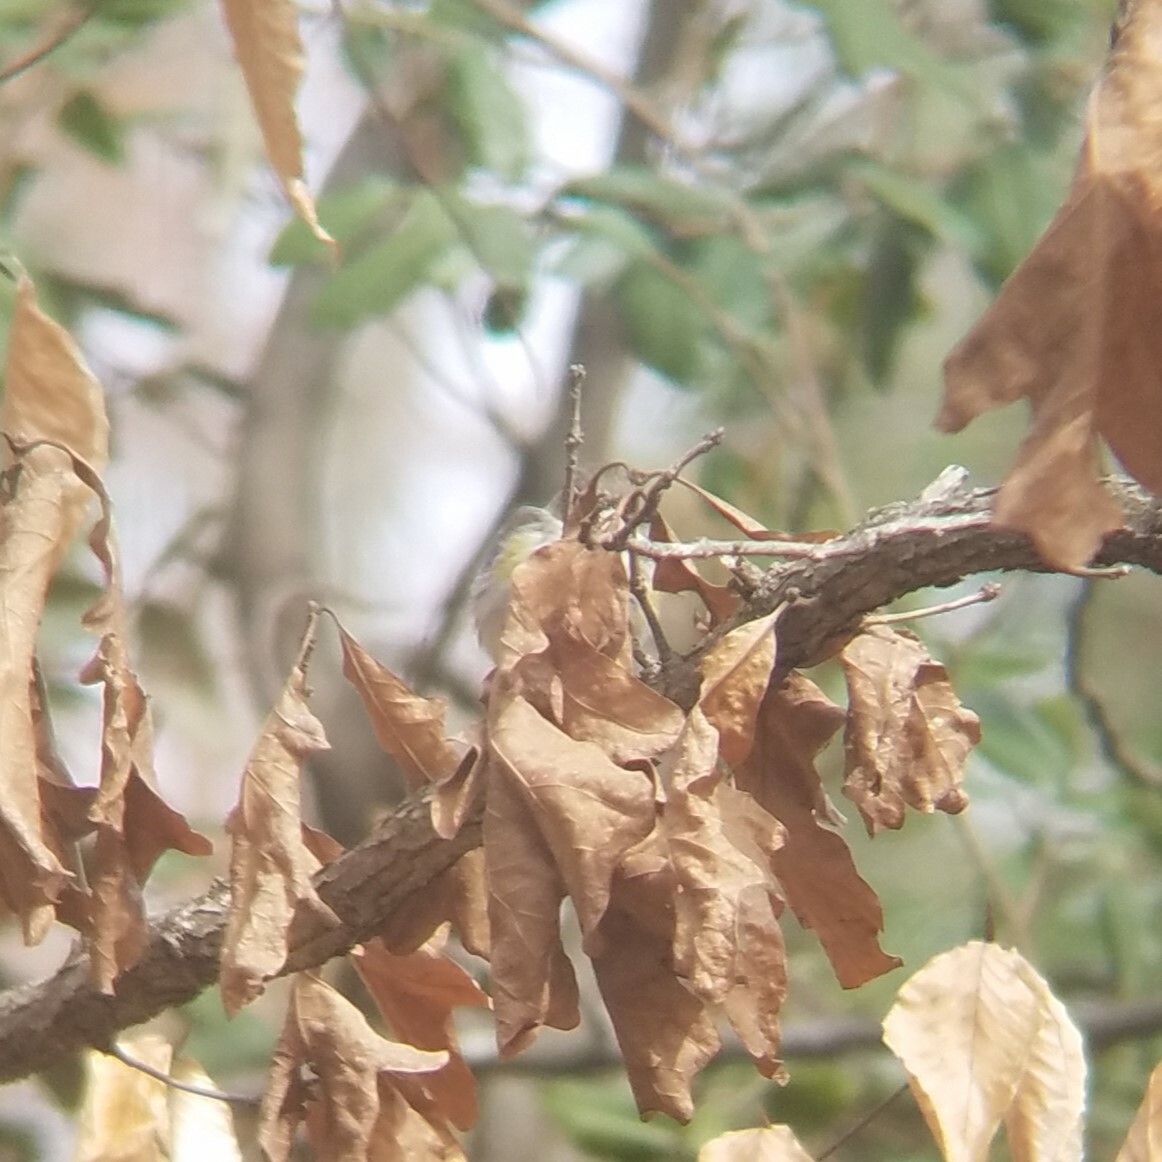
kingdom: Animalia
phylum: Chordata
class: Aves
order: Passeriformes
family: Parulidae
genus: Setophaga
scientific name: Setophaga coronata
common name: Myrtle warbler
